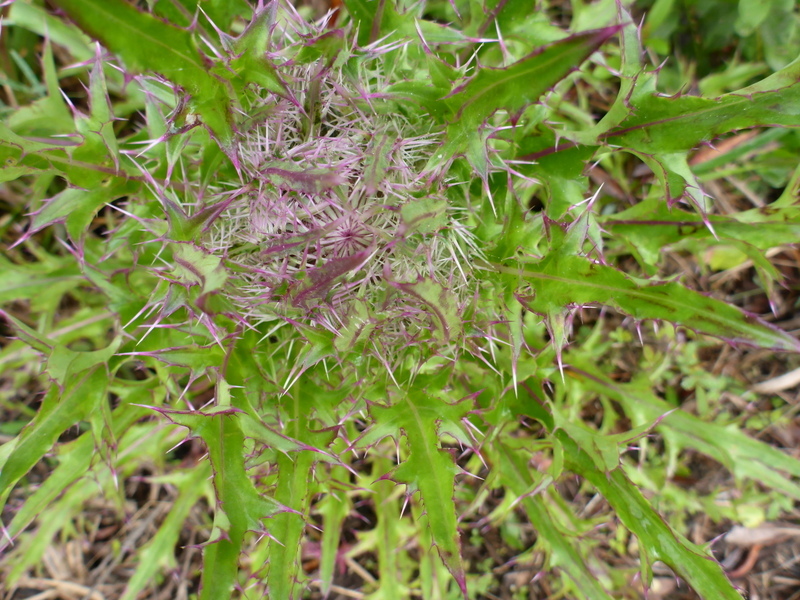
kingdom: Plantae
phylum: Tracheophyta
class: Magnoliopsida
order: Asterales
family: Asteraceae
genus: Cirsium
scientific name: Cirsium horridulum
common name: Bristly thistle
